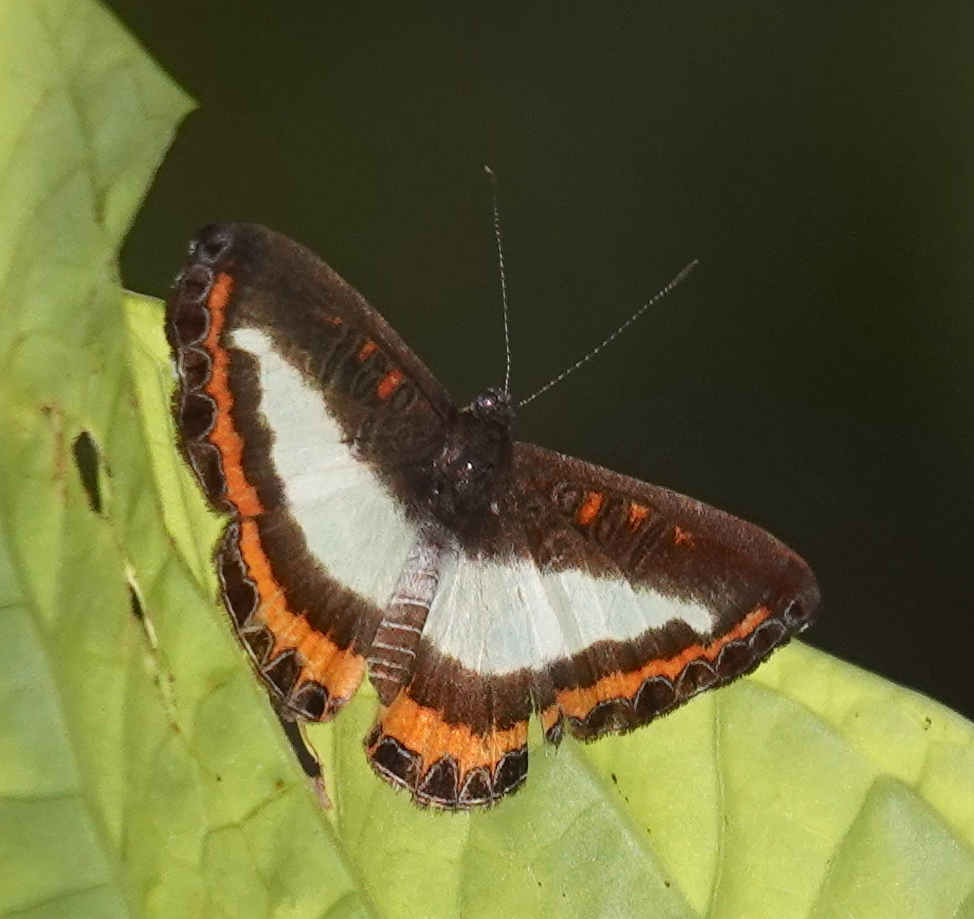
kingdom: Animalia
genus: Nymphidium
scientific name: Nymphidium caricae
